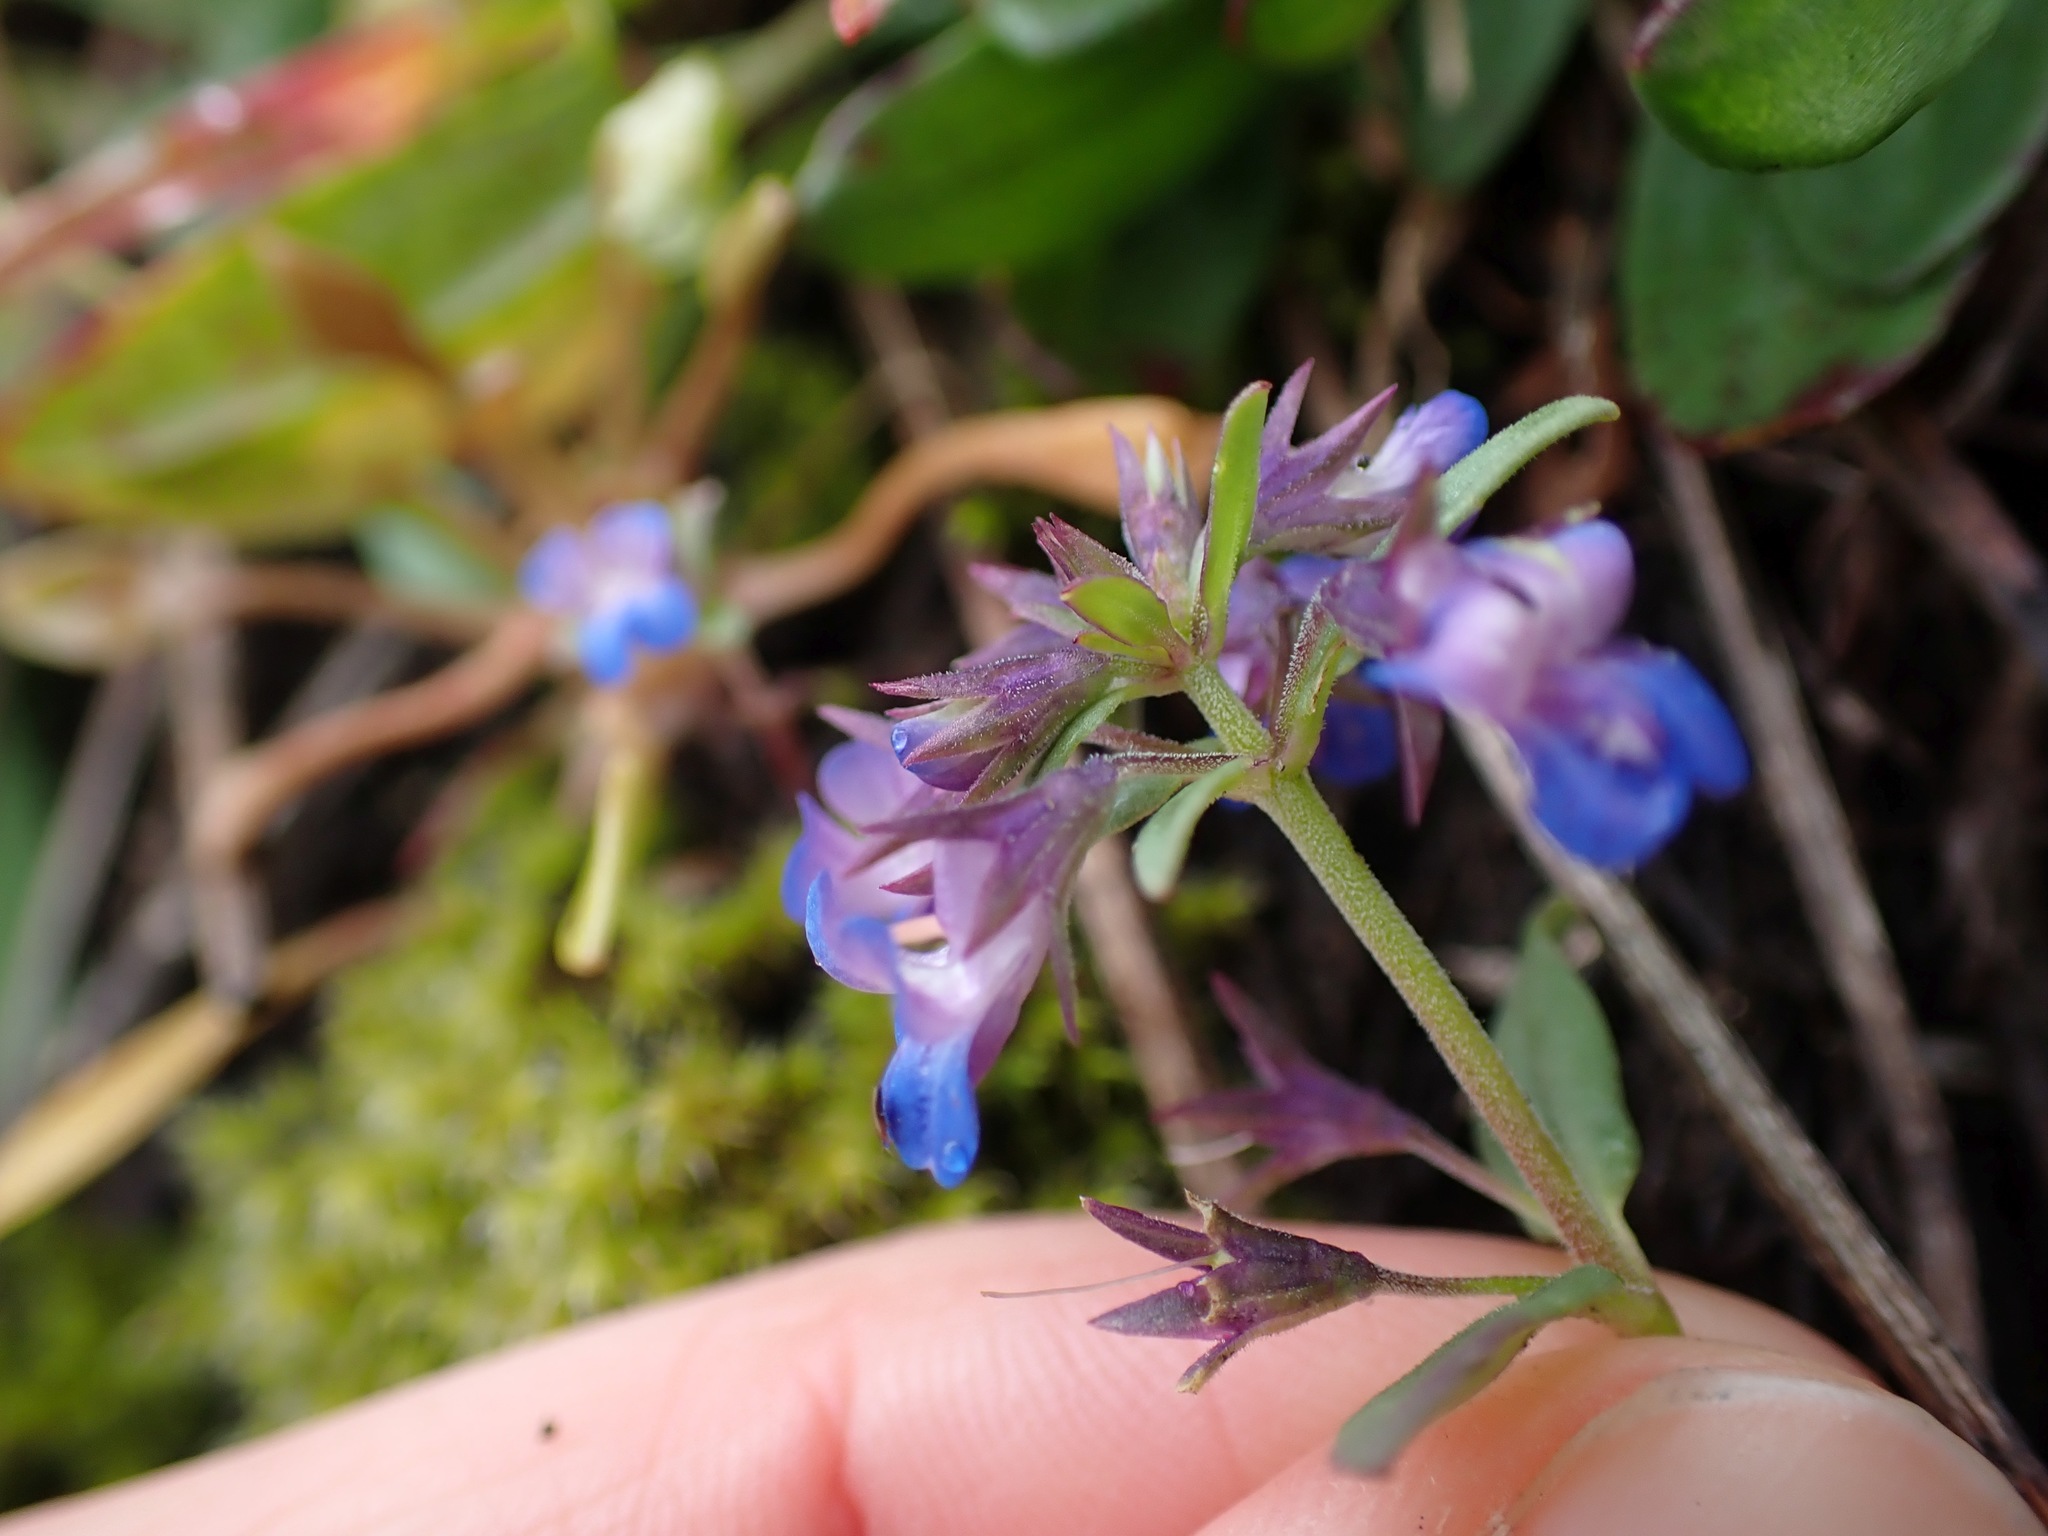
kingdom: Plantae
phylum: Tracheophyta
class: Magnoliopsida
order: Lamiales
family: Plantaginaceae
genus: Collinsia
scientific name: Collinsia parviflora
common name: Blue-lips
